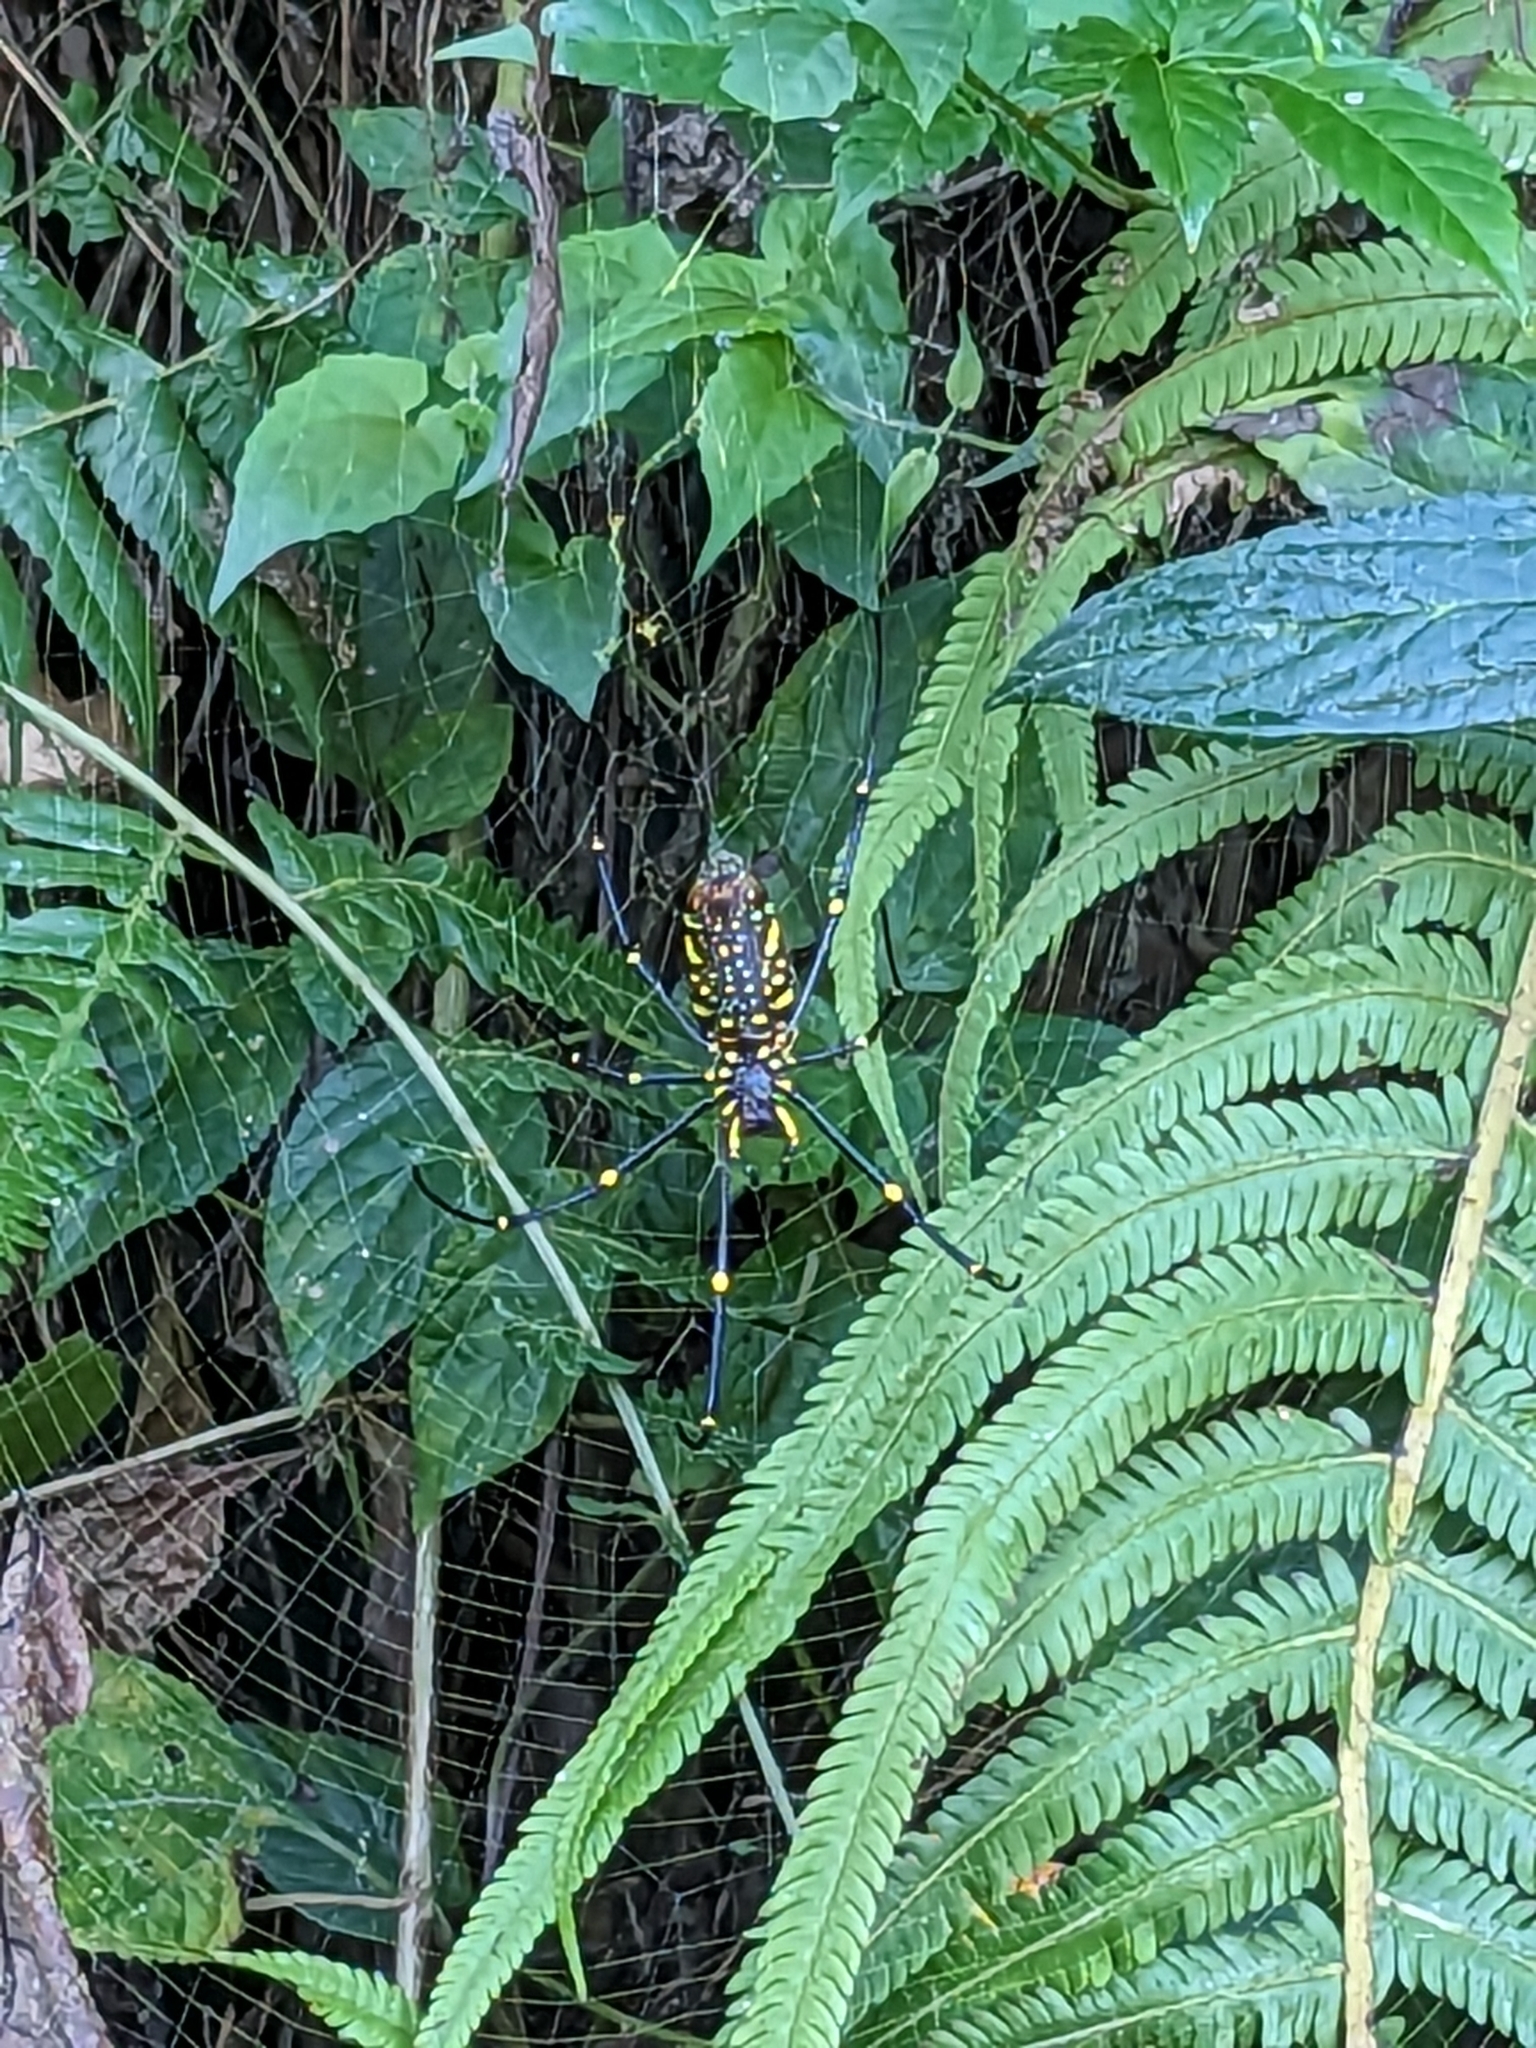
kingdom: Animalia
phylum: Arthropoda
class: Arachnida
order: Araneae
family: Araneidae
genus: Nephila
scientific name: Nephila pilipes
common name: Giant golden orb weaver
